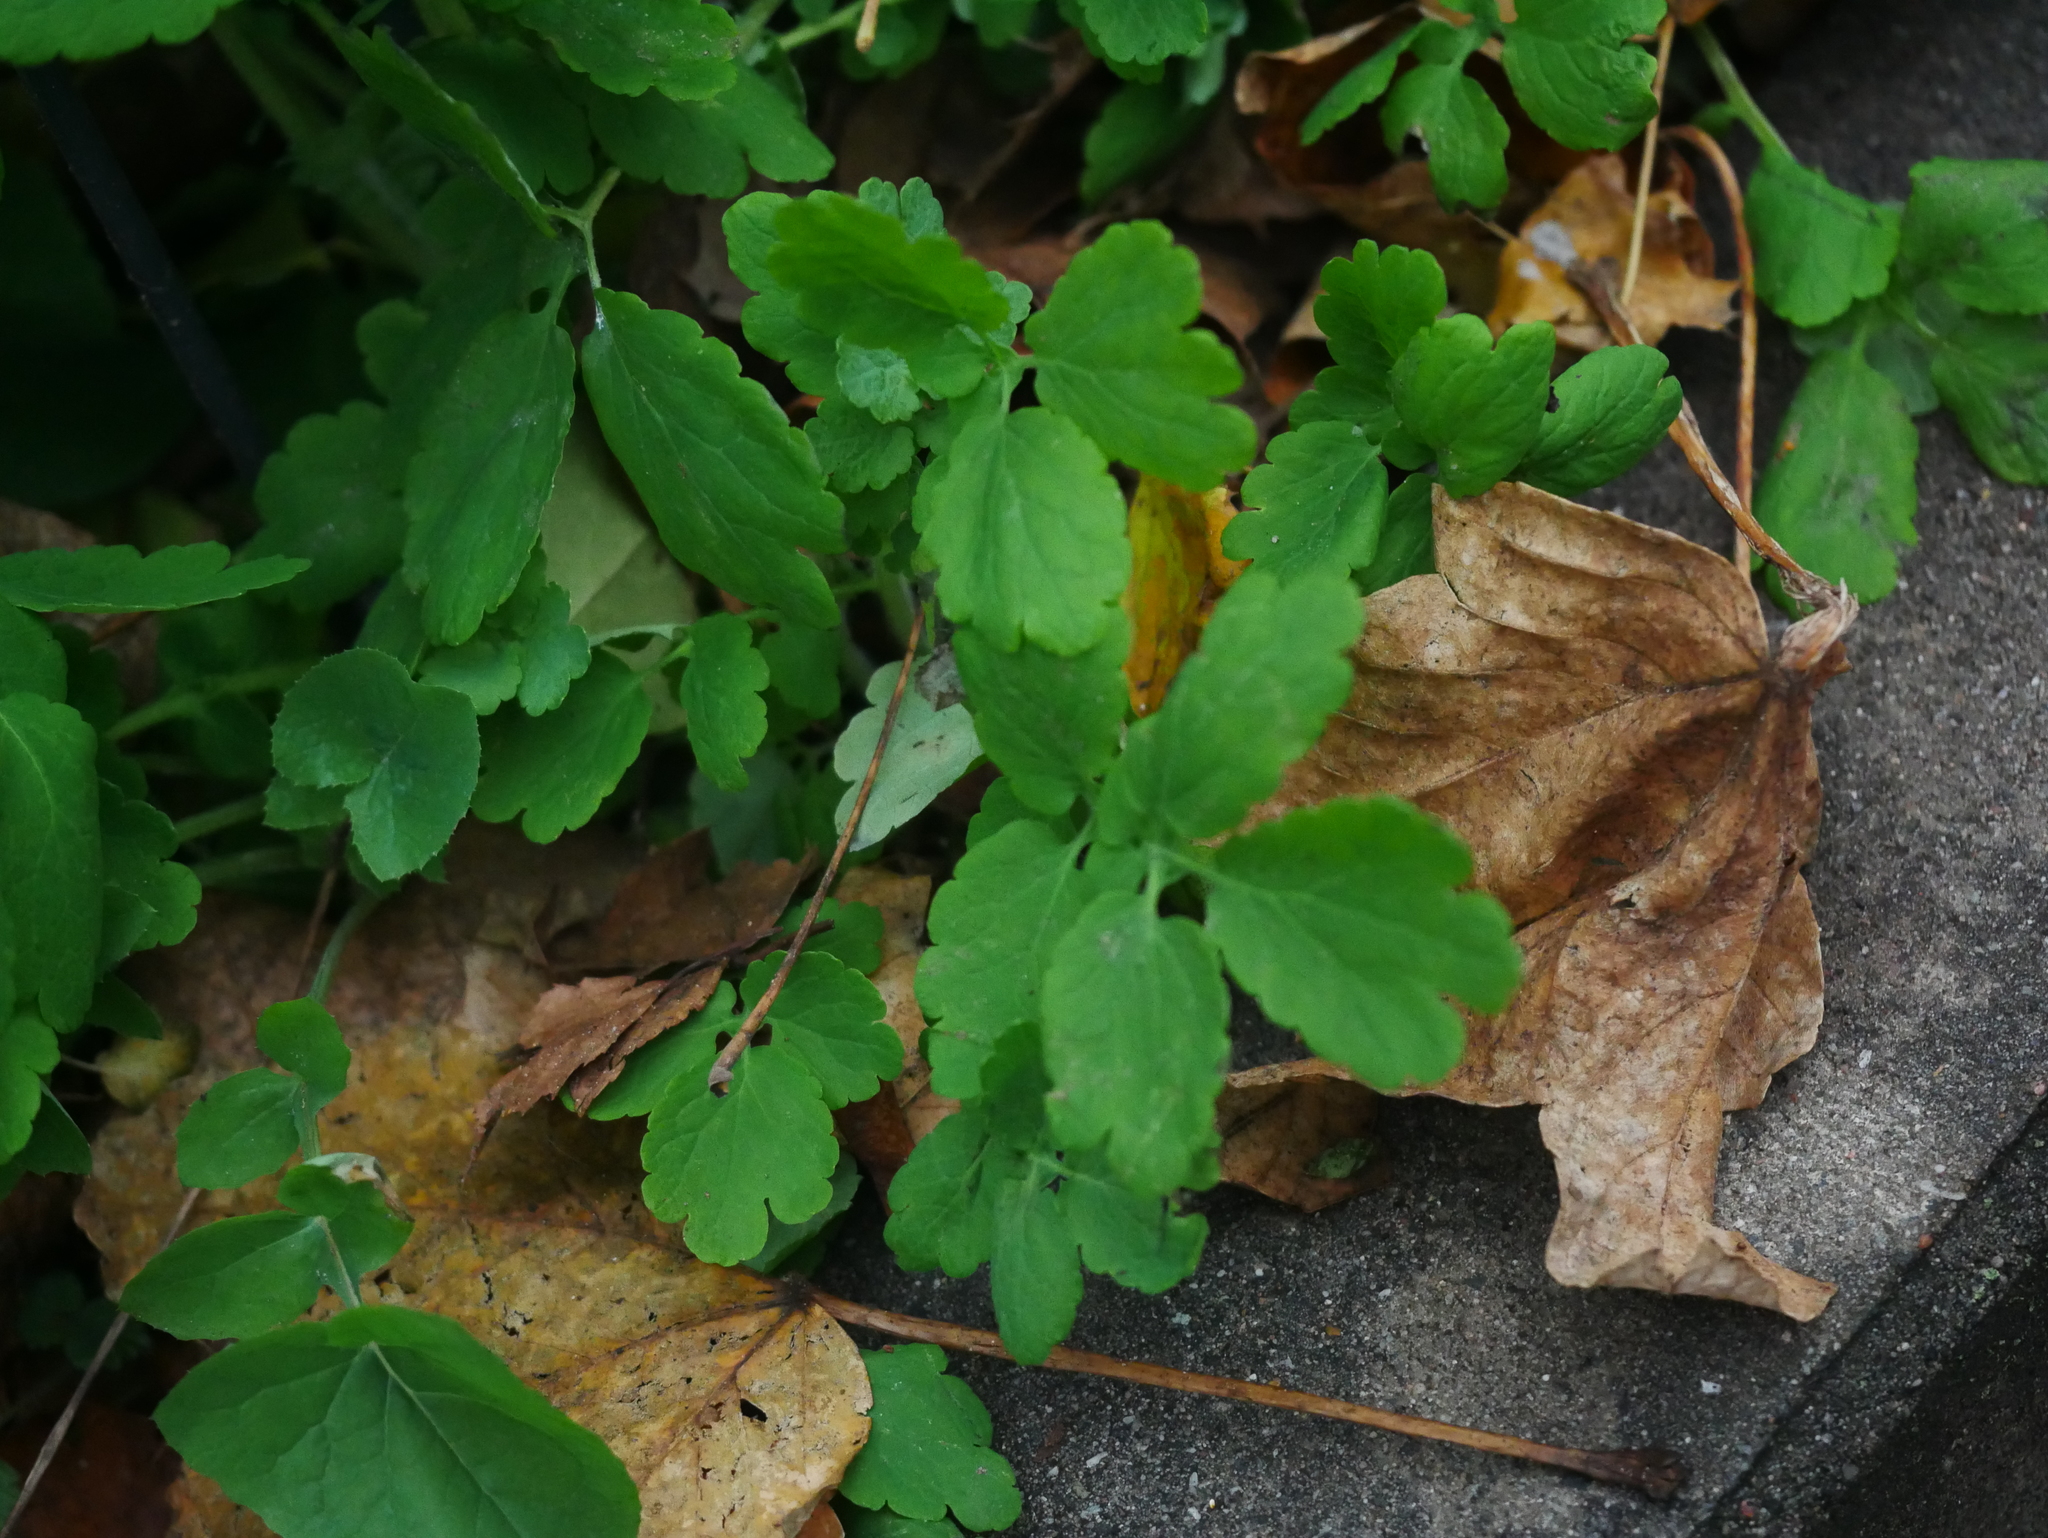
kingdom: Plantae
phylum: Tracheophyta
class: Magnoliopsida
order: Ranunculales
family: Papaveraceae
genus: Chelidonium
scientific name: Chelidonium majus
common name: Greater celandine
